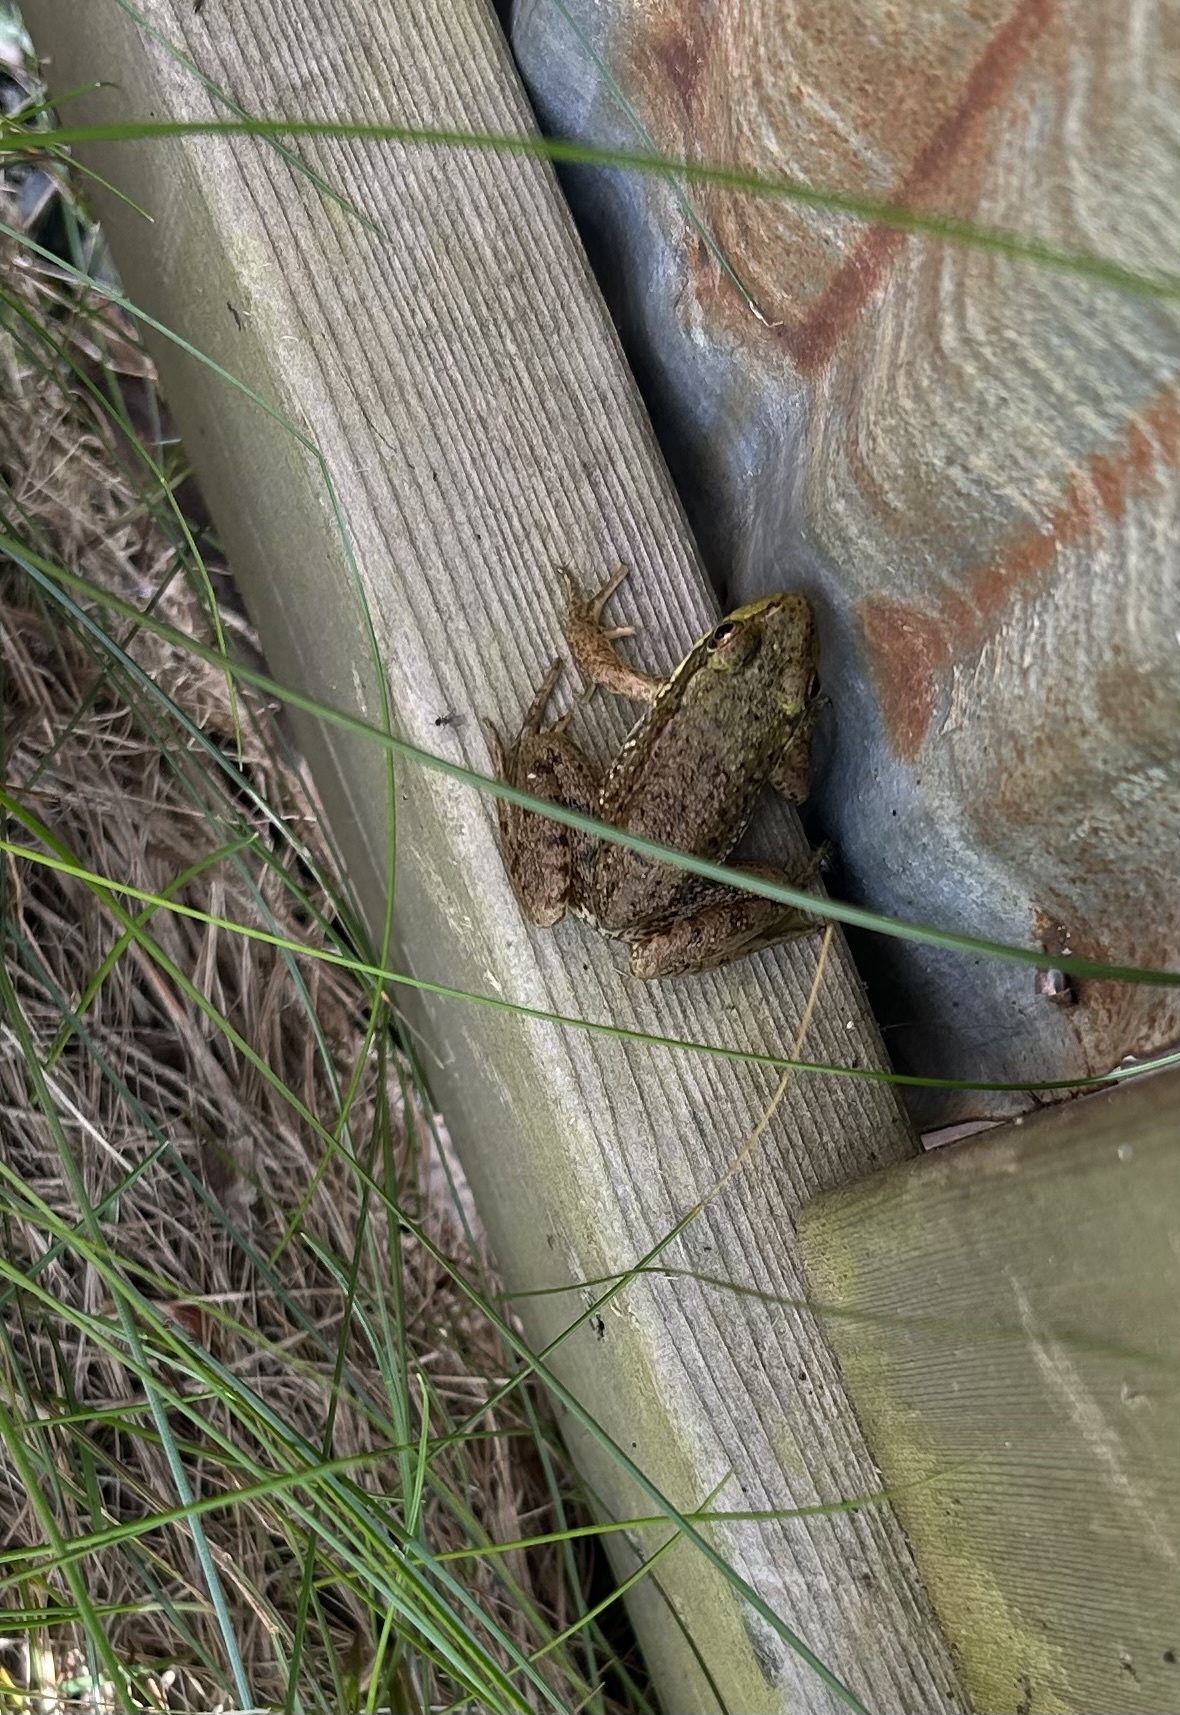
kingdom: Animalia
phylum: Chordata
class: Amphibia
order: Anura
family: Ranidae
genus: Lithobates
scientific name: Lithobates clamitans
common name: Green frog
